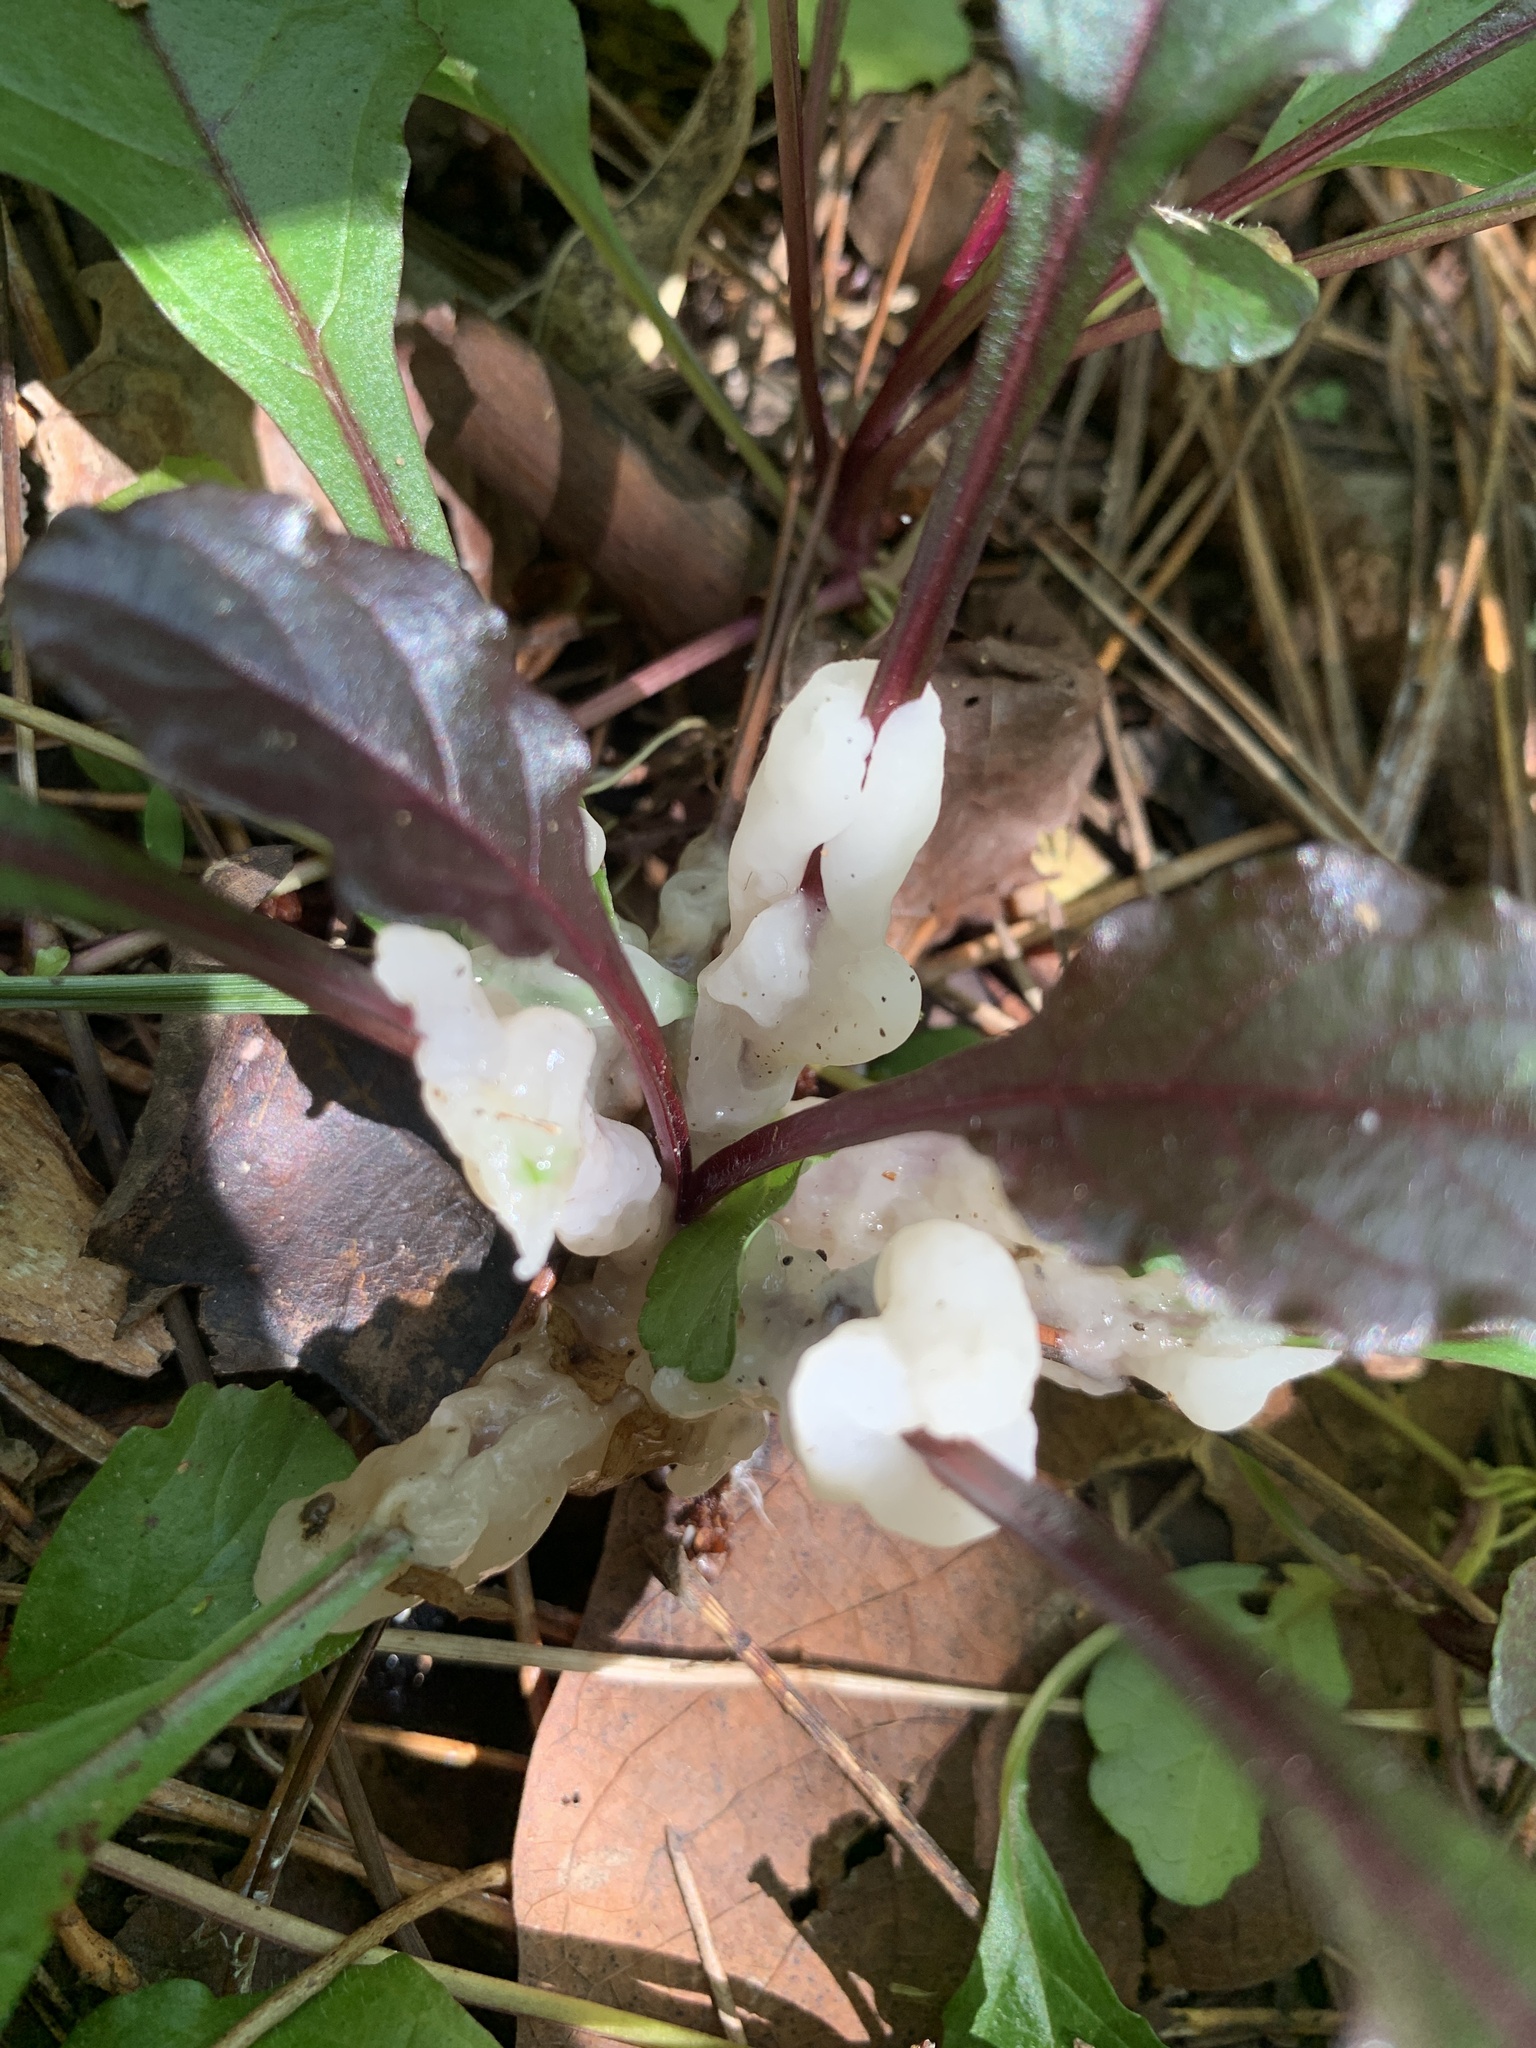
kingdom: Fungi
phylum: Basidiomycota
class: Agaricomycetes
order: Sebacinales
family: Sebacinaceae
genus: Helvellosebacina
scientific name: Helvellosebacina concrescens
